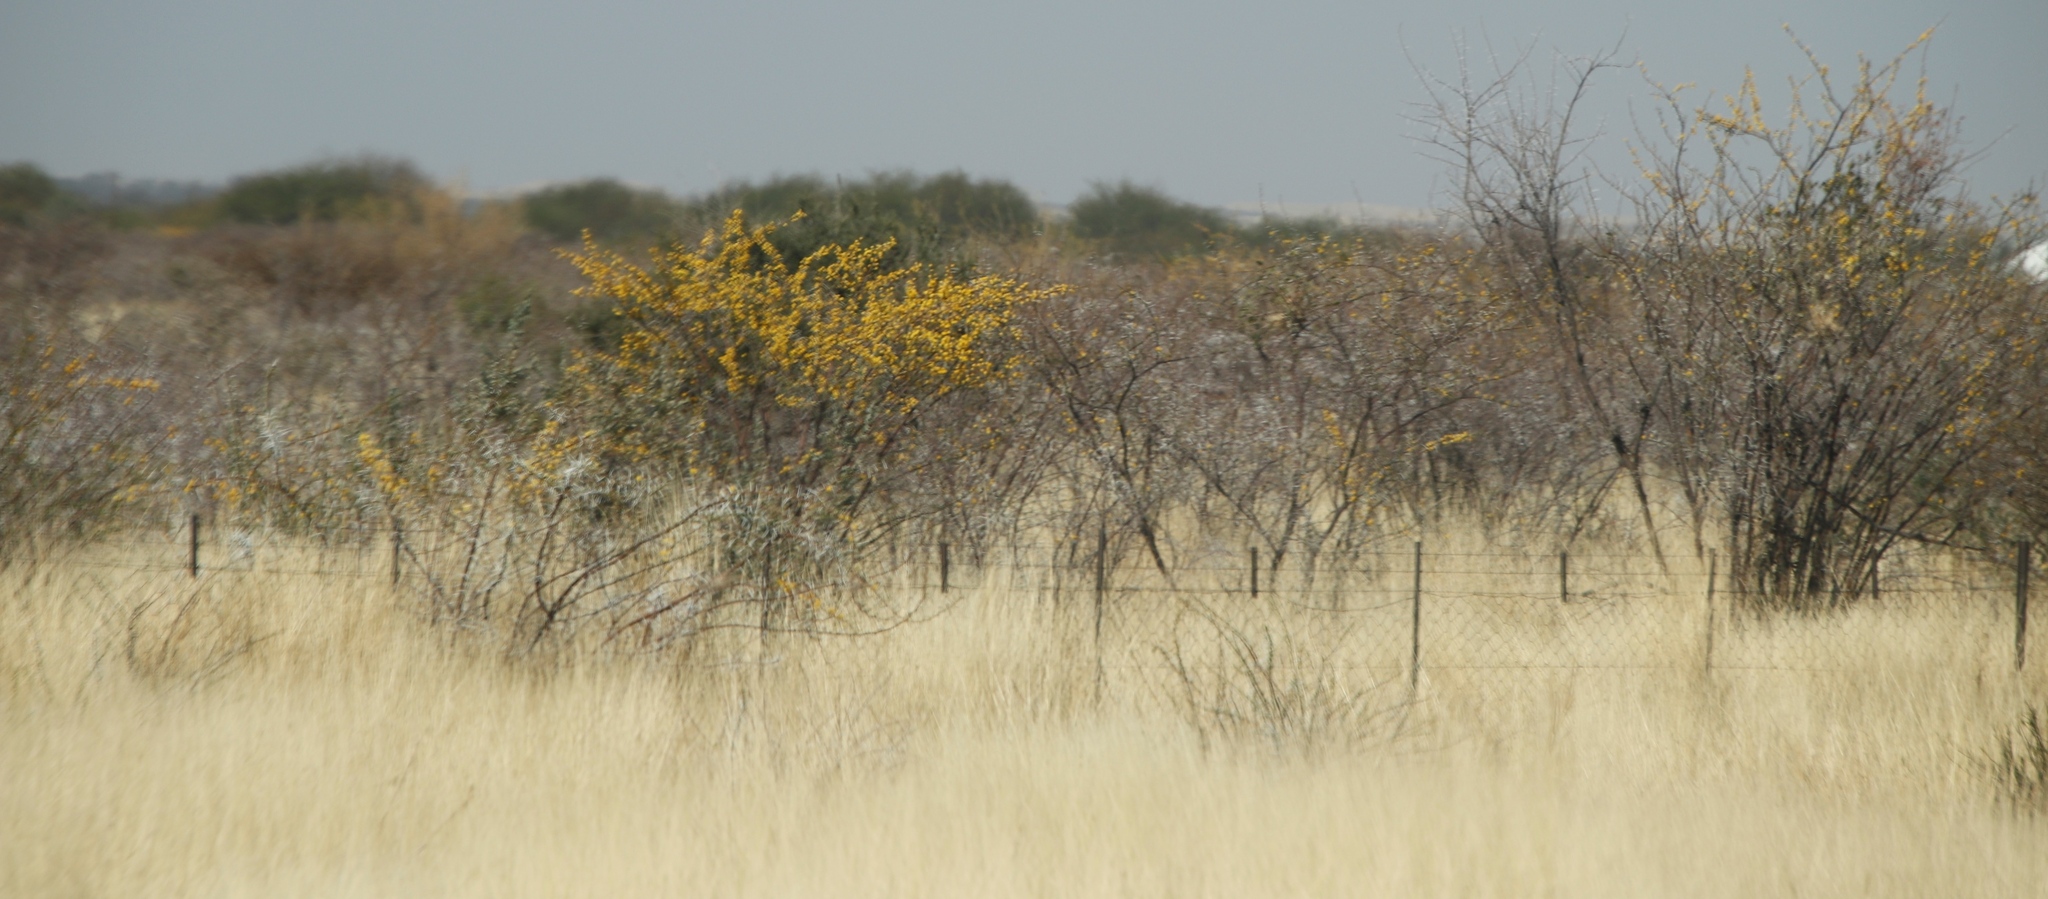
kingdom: Plantae
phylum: Tracheophyta
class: Magnoliopsida
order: Fabales
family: Fabaceae
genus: Vachellia
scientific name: Vachellia nebrownii
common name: Water acacia
